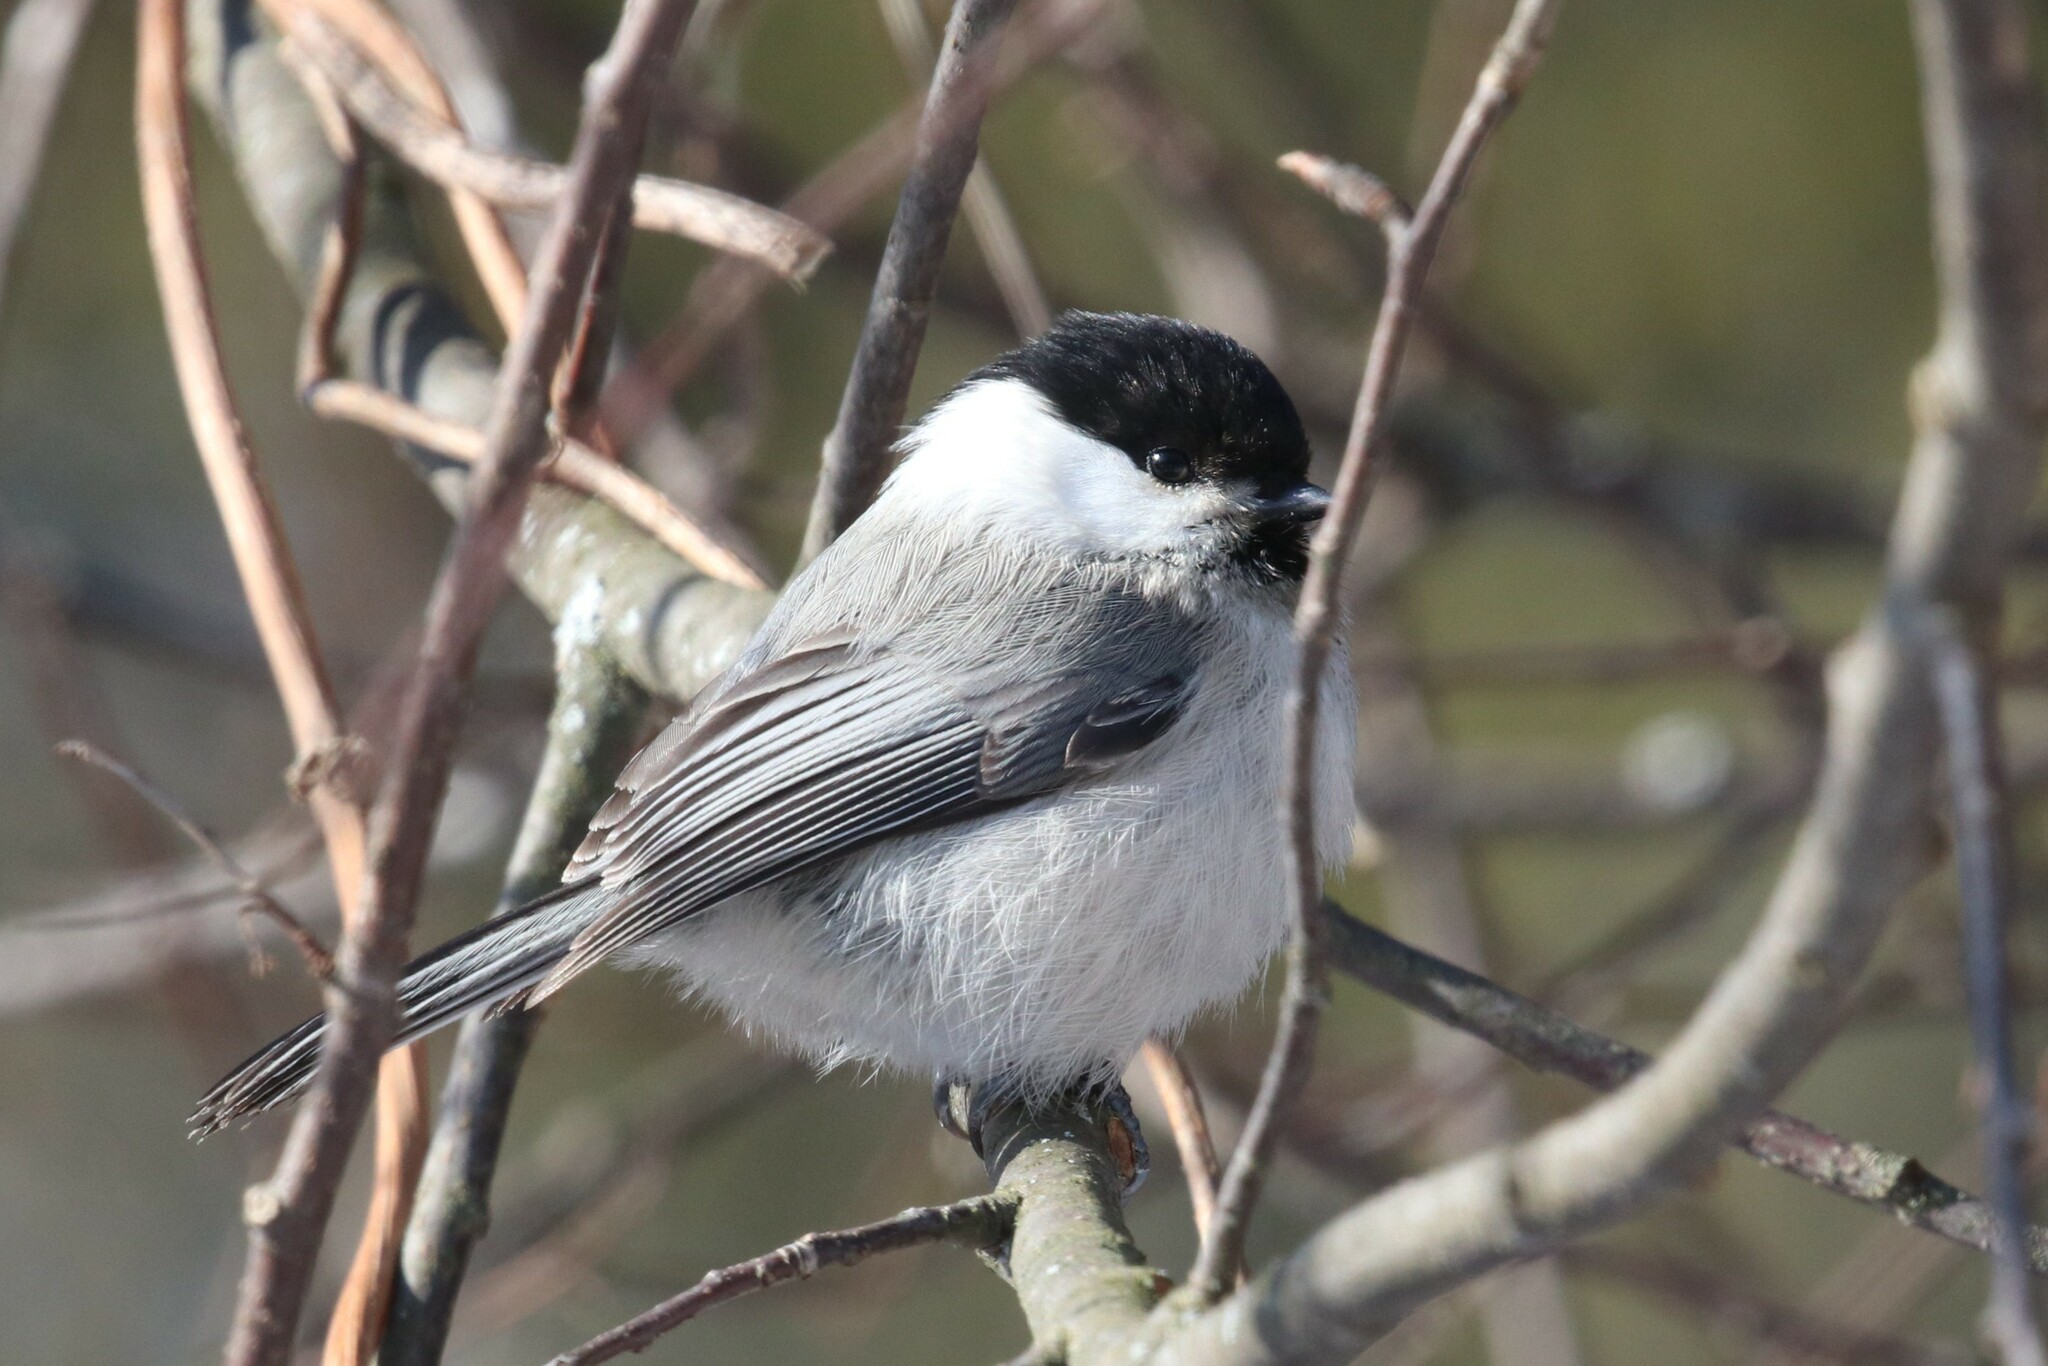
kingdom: Animalia
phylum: Chordata
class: Aves
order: Passeriformes
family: Paridae
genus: Poecile
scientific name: Poecile montanus
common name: Willow tit
